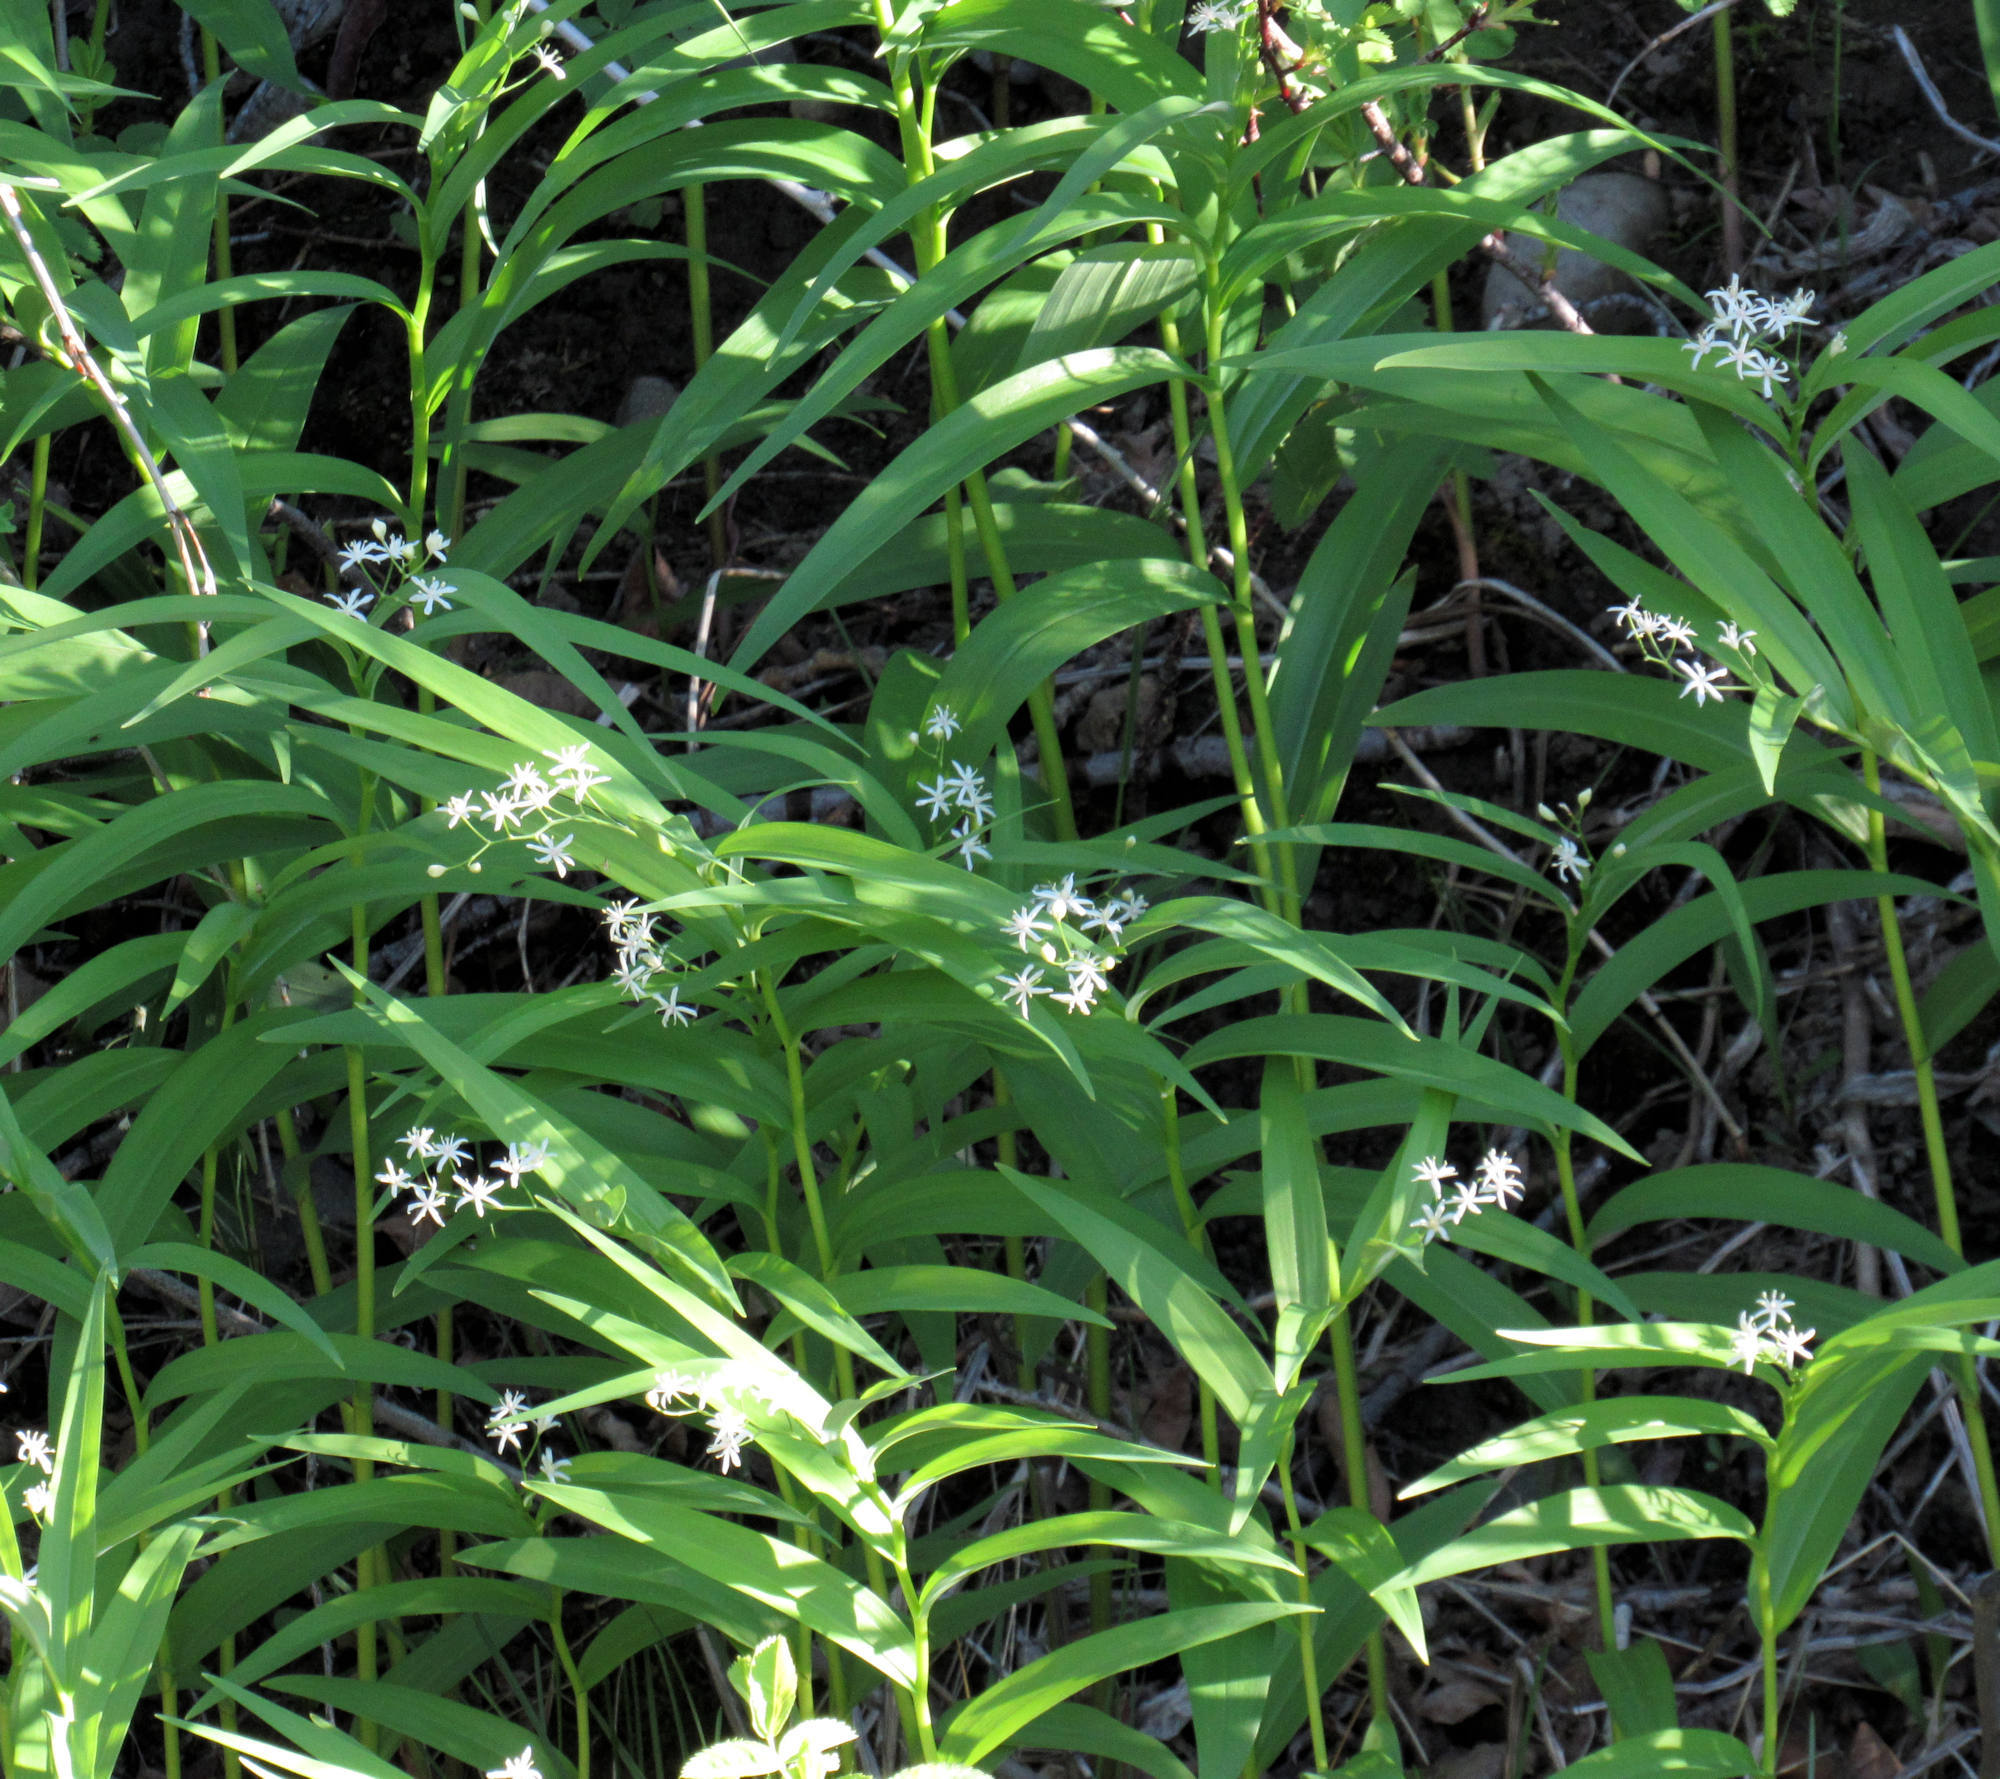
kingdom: Plantae
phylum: Tracheophyta
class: Liliopsida
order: Asparagales
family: Asparagaceae
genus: Maianthemum
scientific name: Maianthemum stellatum
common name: Little false solomon's seal
